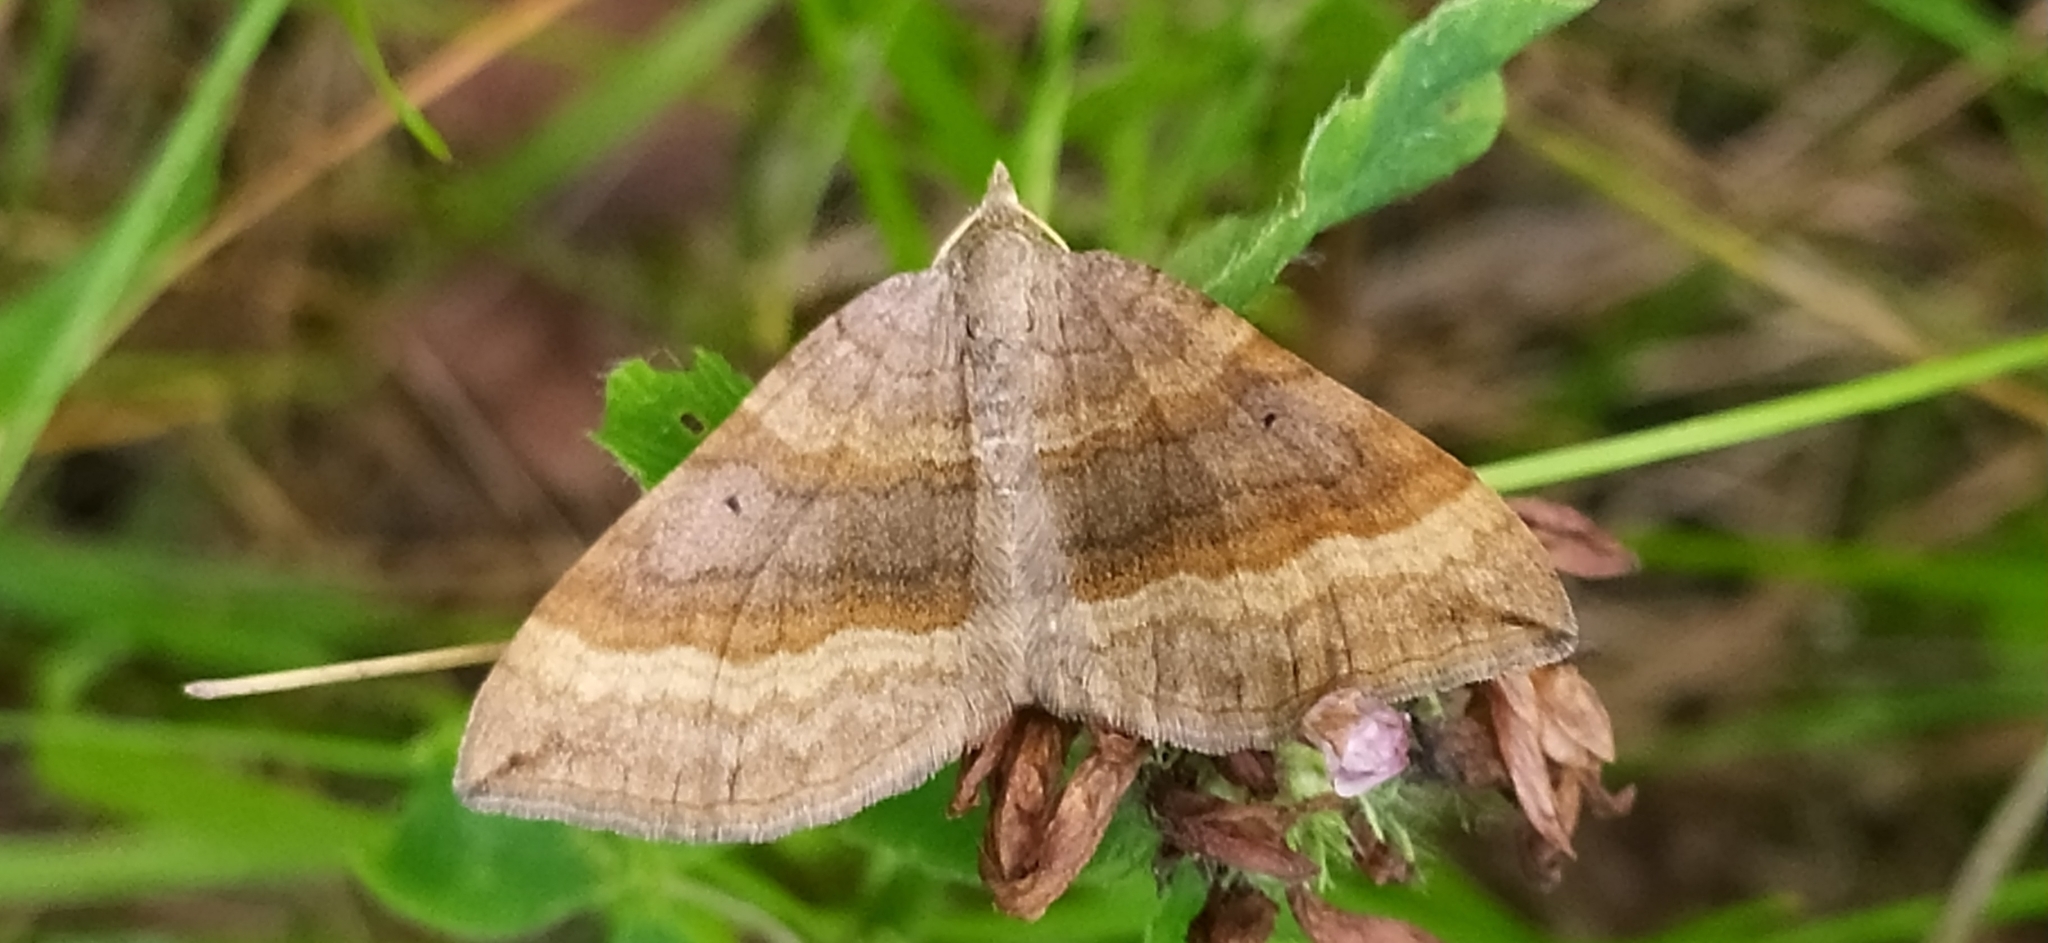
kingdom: Animalia
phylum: Arthropoda
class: Insecta
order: Lepidoptera
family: Geometridae
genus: Scotopteryx
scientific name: Scotopteryx chenopodiata
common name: Shaded broad-bar
